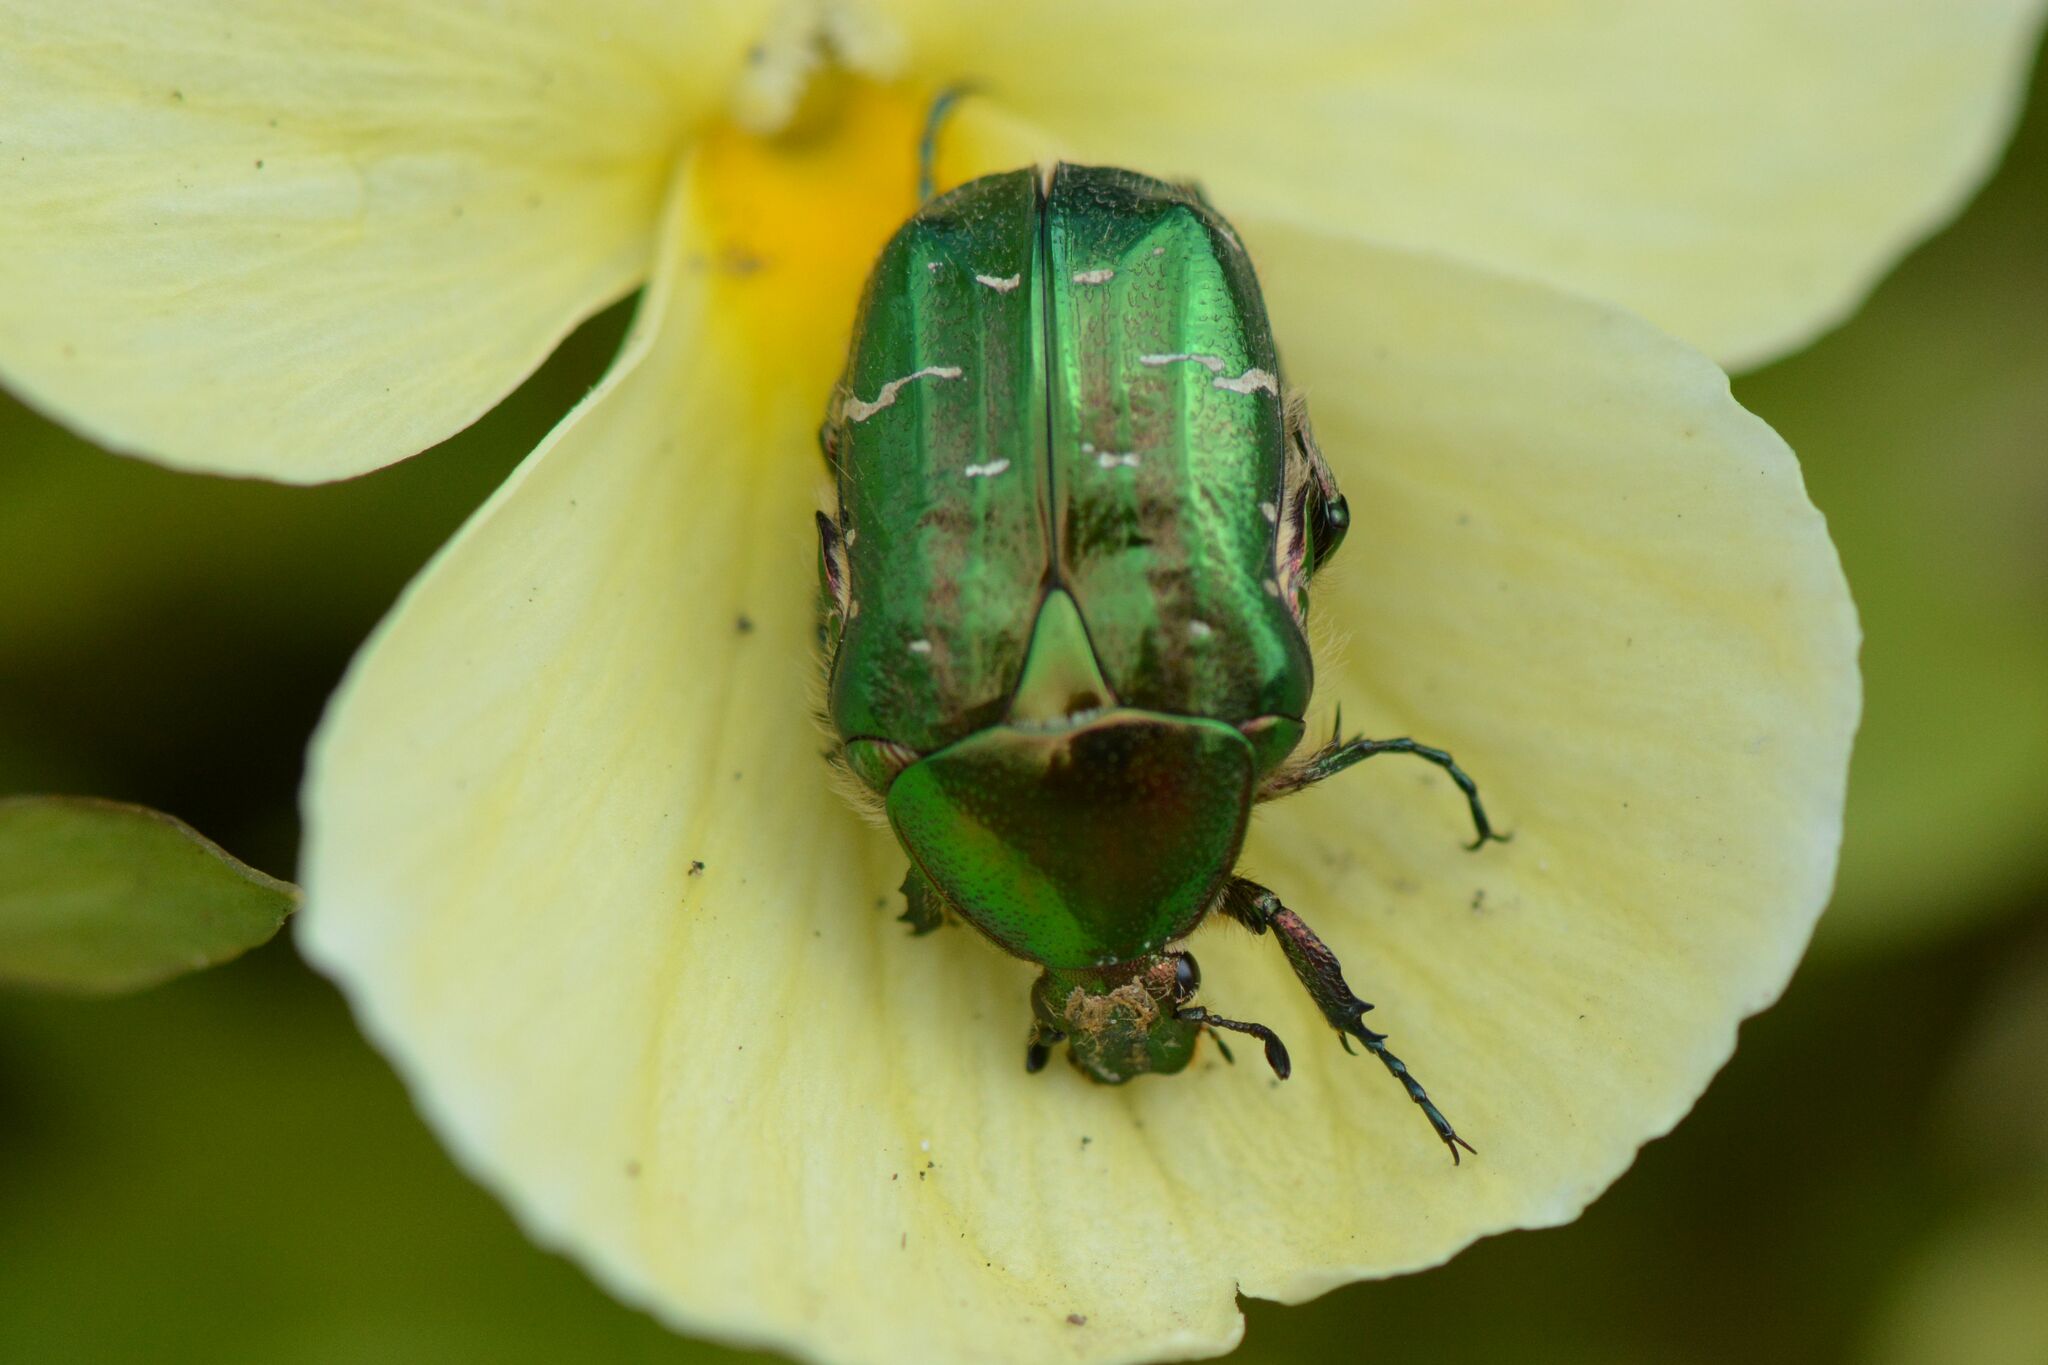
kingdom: Animalia
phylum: Arthropoda
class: Insecta
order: Coleoptera
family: Scarabaeidae
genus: Cetonia
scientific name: Cetonia aurata
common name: Rose chafer
